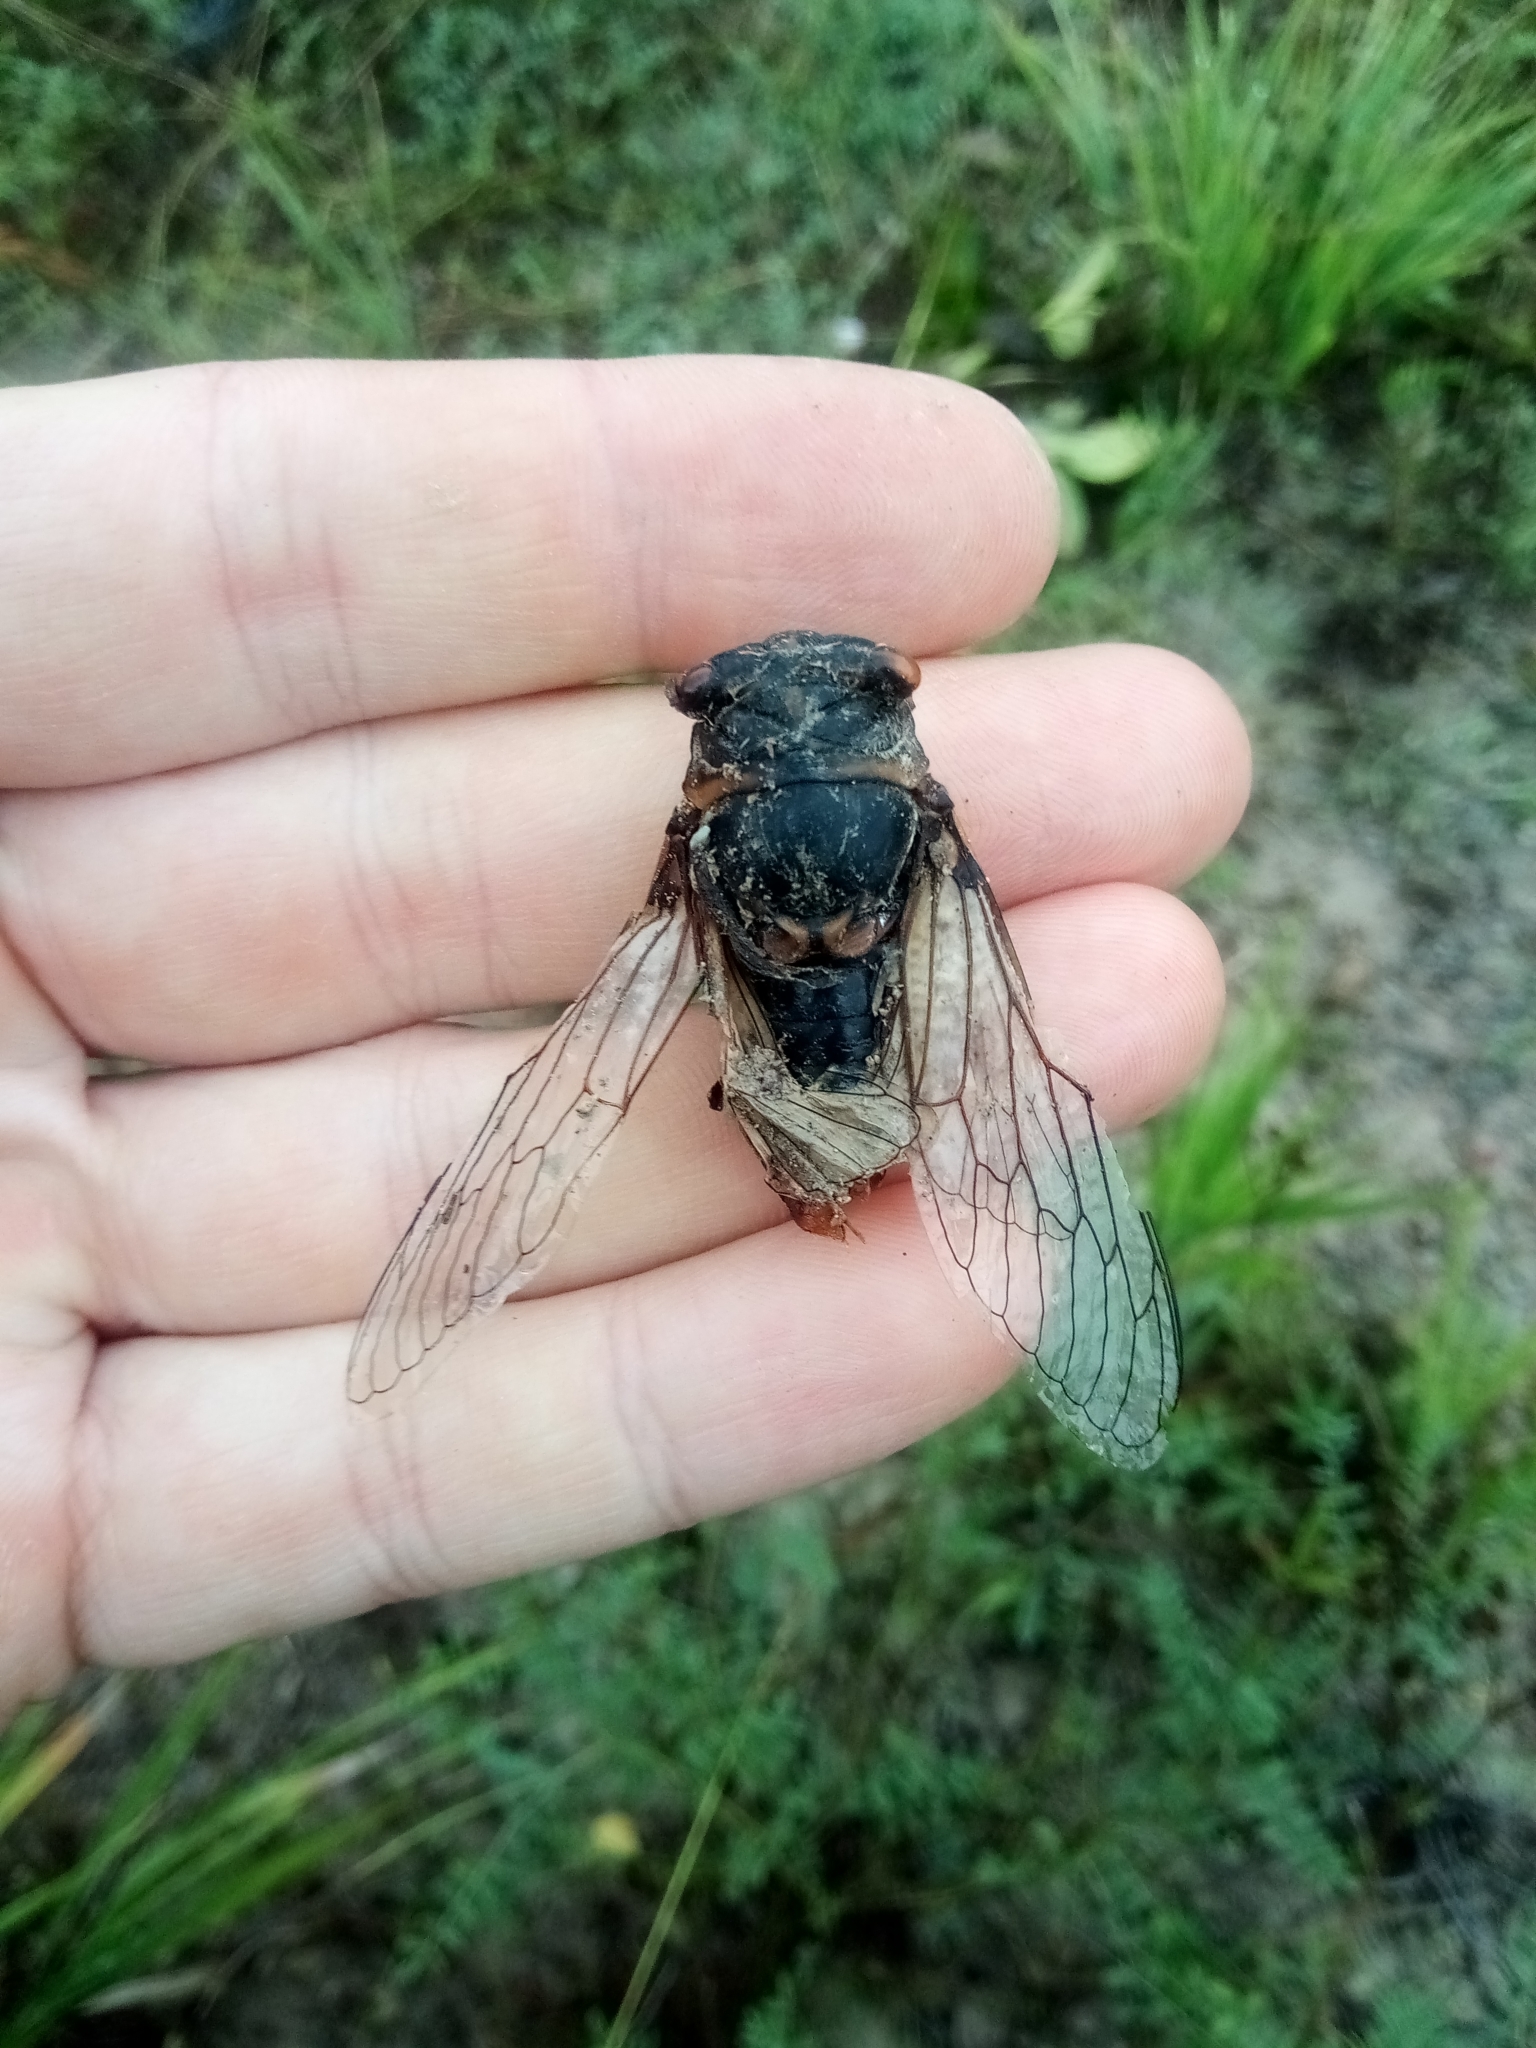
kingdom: Animalia
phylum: Arthropoda
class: Insecta
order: Hemiptera
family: Cicadidae
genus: Lyristes
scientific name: Lyristes plebejus
